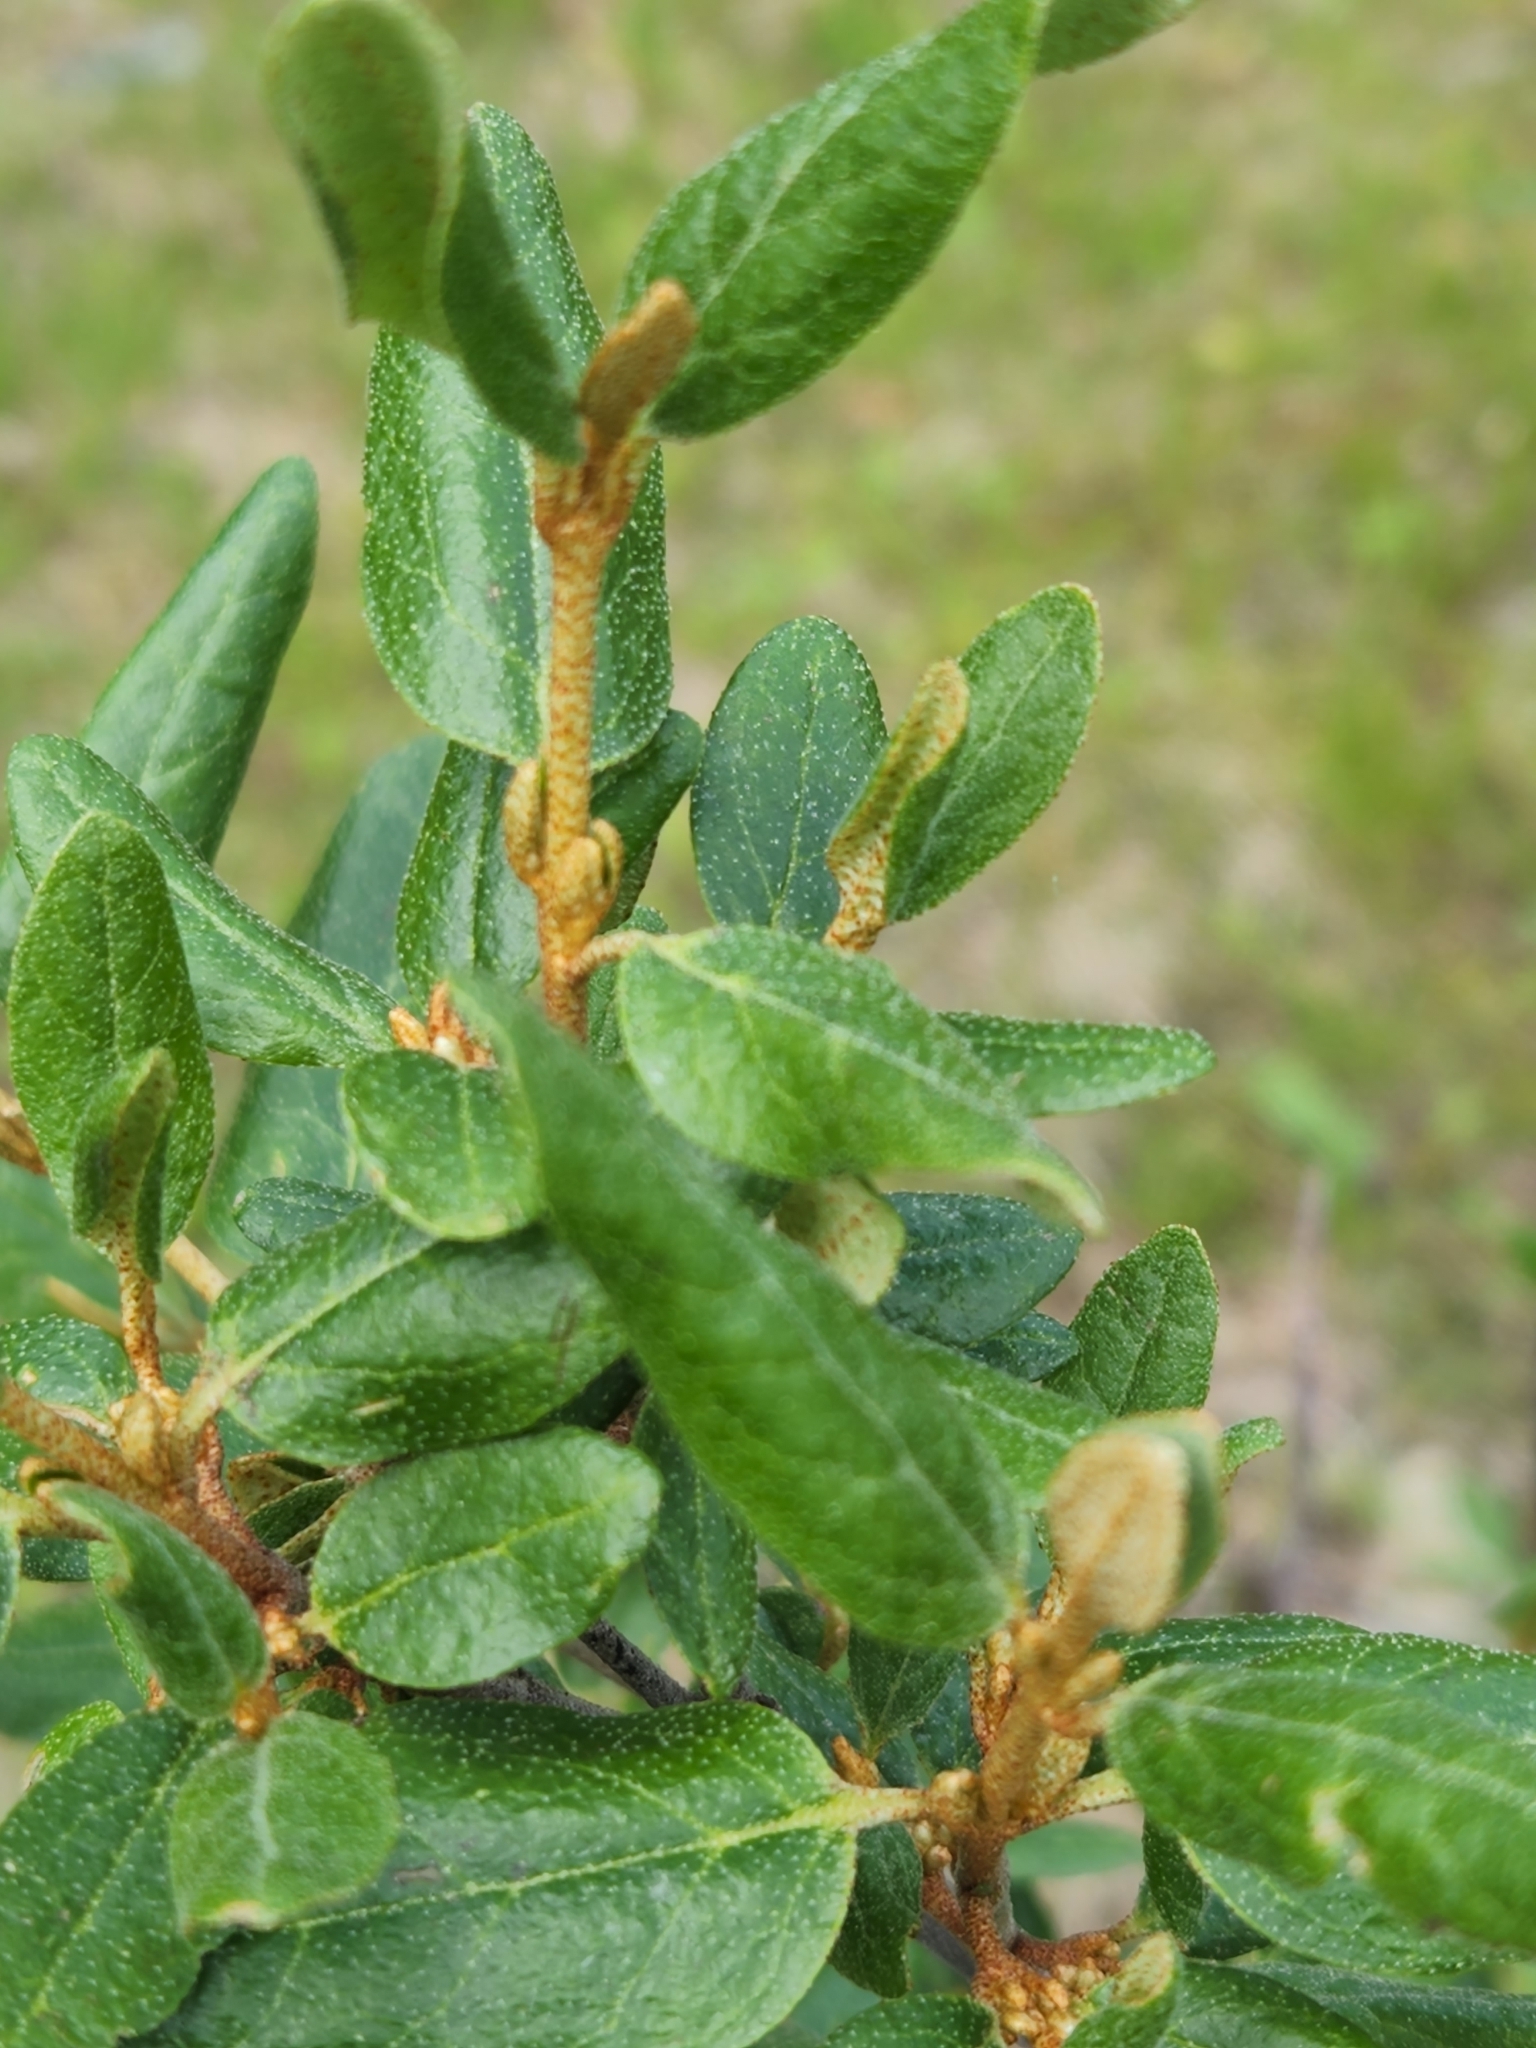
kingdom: Plantae
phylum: Tracheophyta
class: Magnoliopsida
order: Rosales
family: Elaeagnaceae
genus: Shepherdia
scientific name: Shepherdia canadensis
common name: Soapberry
